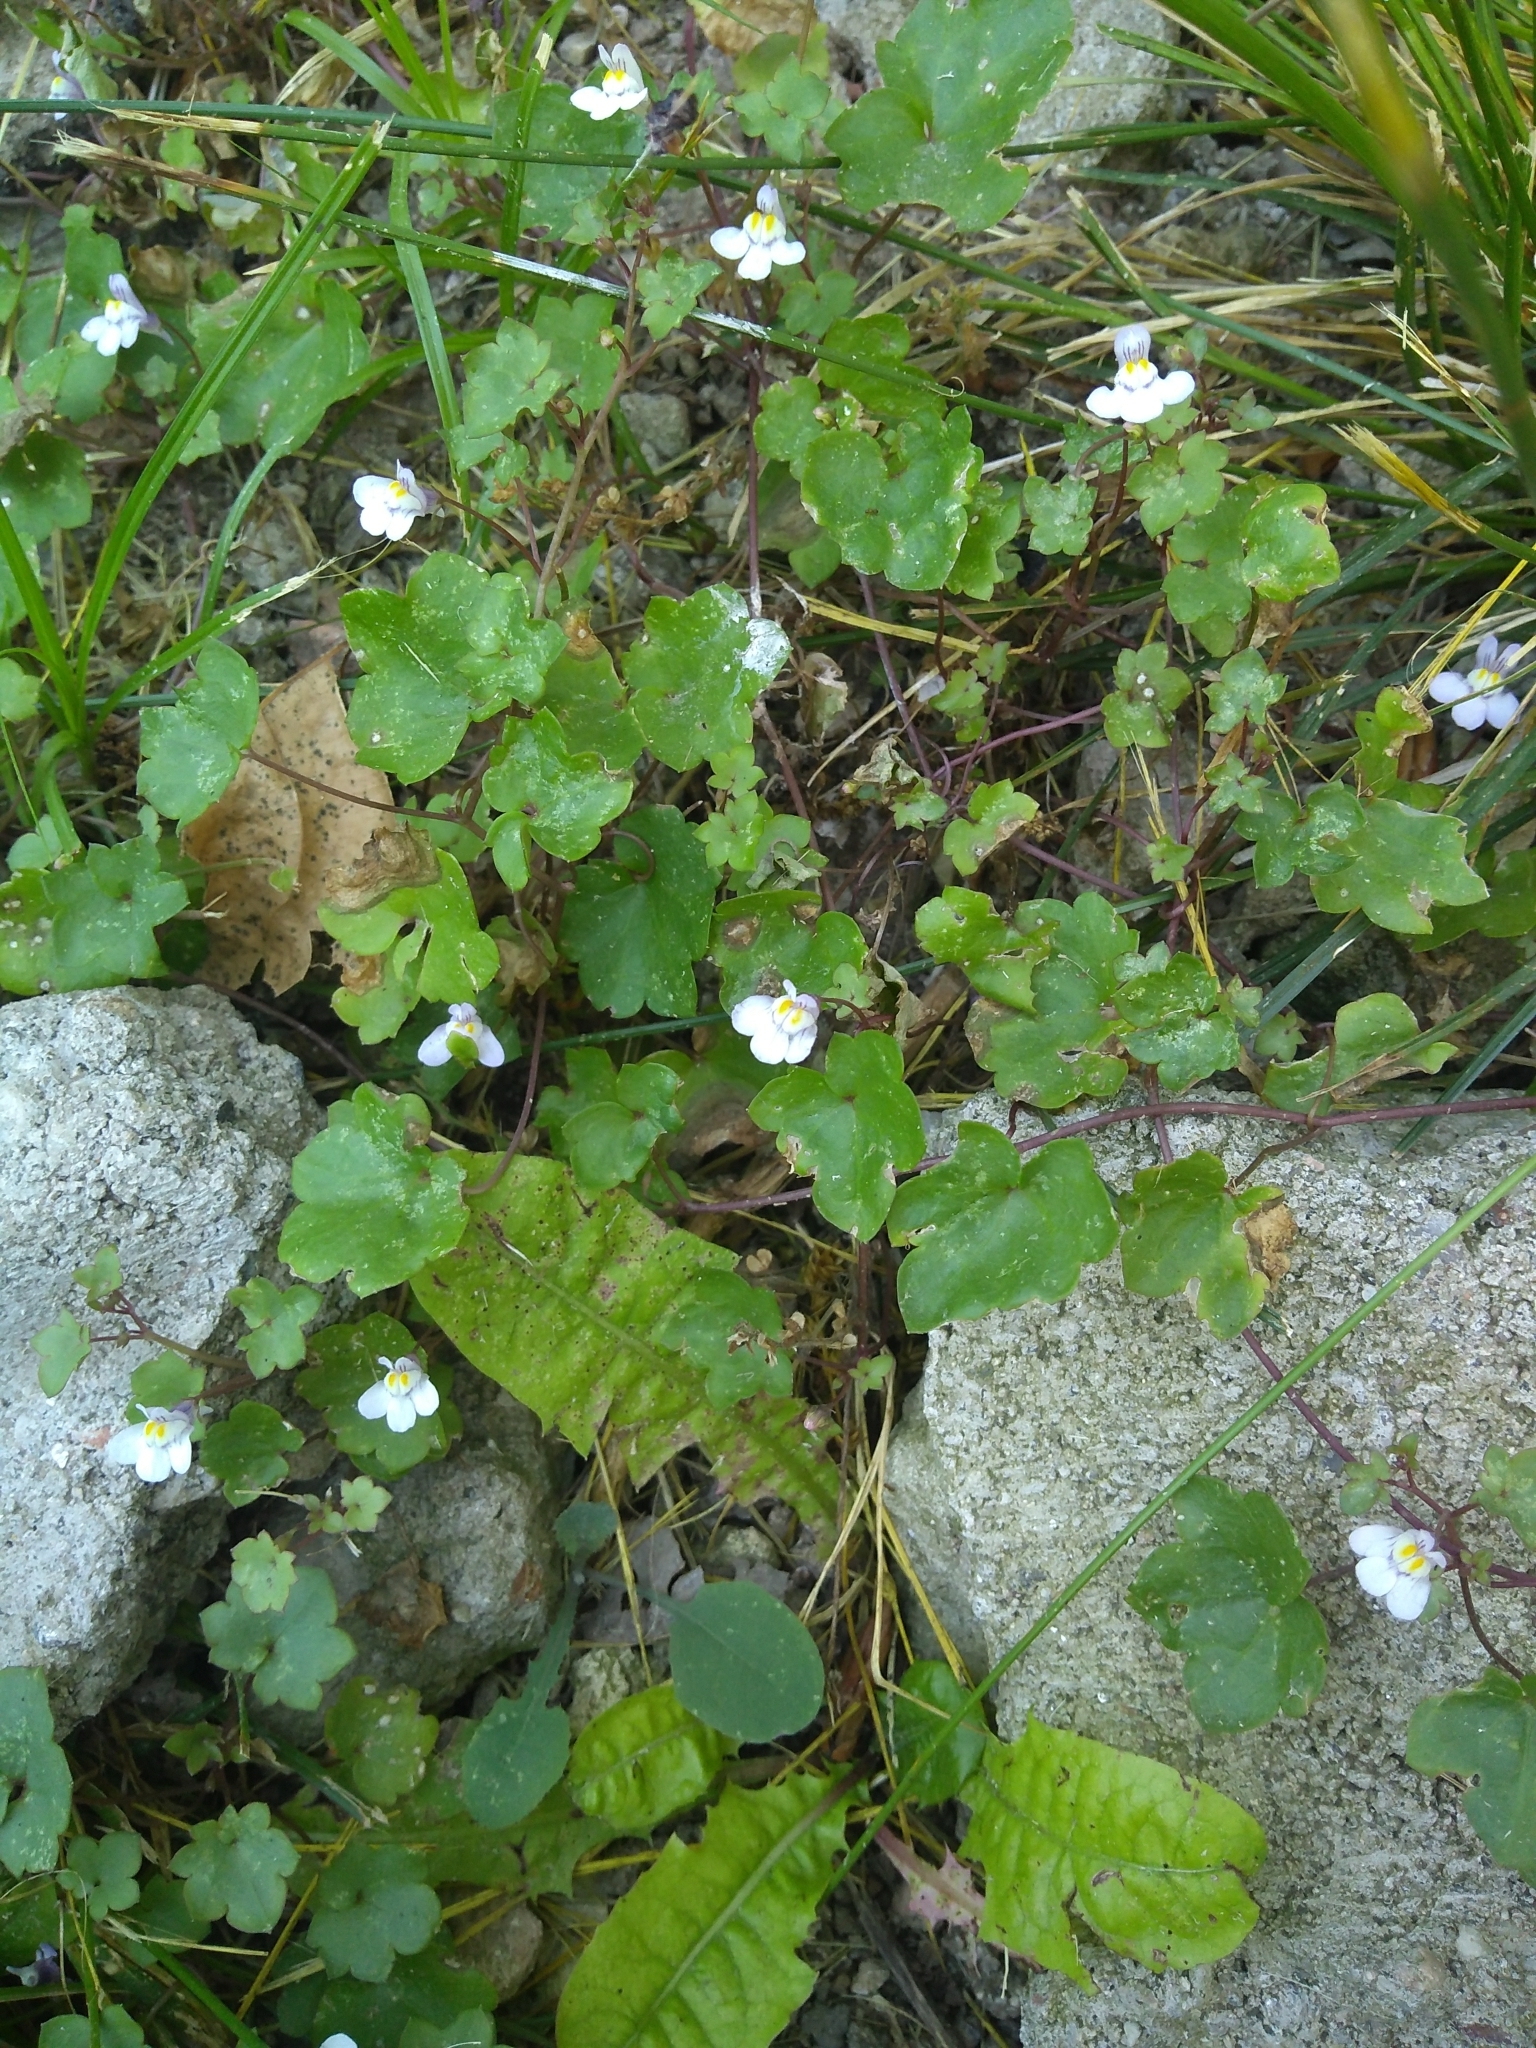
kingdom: Plantae
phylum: Tracheophyta
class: Magnoliopsida
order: Lamiales
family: Plantaginaceae
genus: Cymbalaria
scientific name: Cymbalaria muralis
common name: Ivy-leaved toadflax
